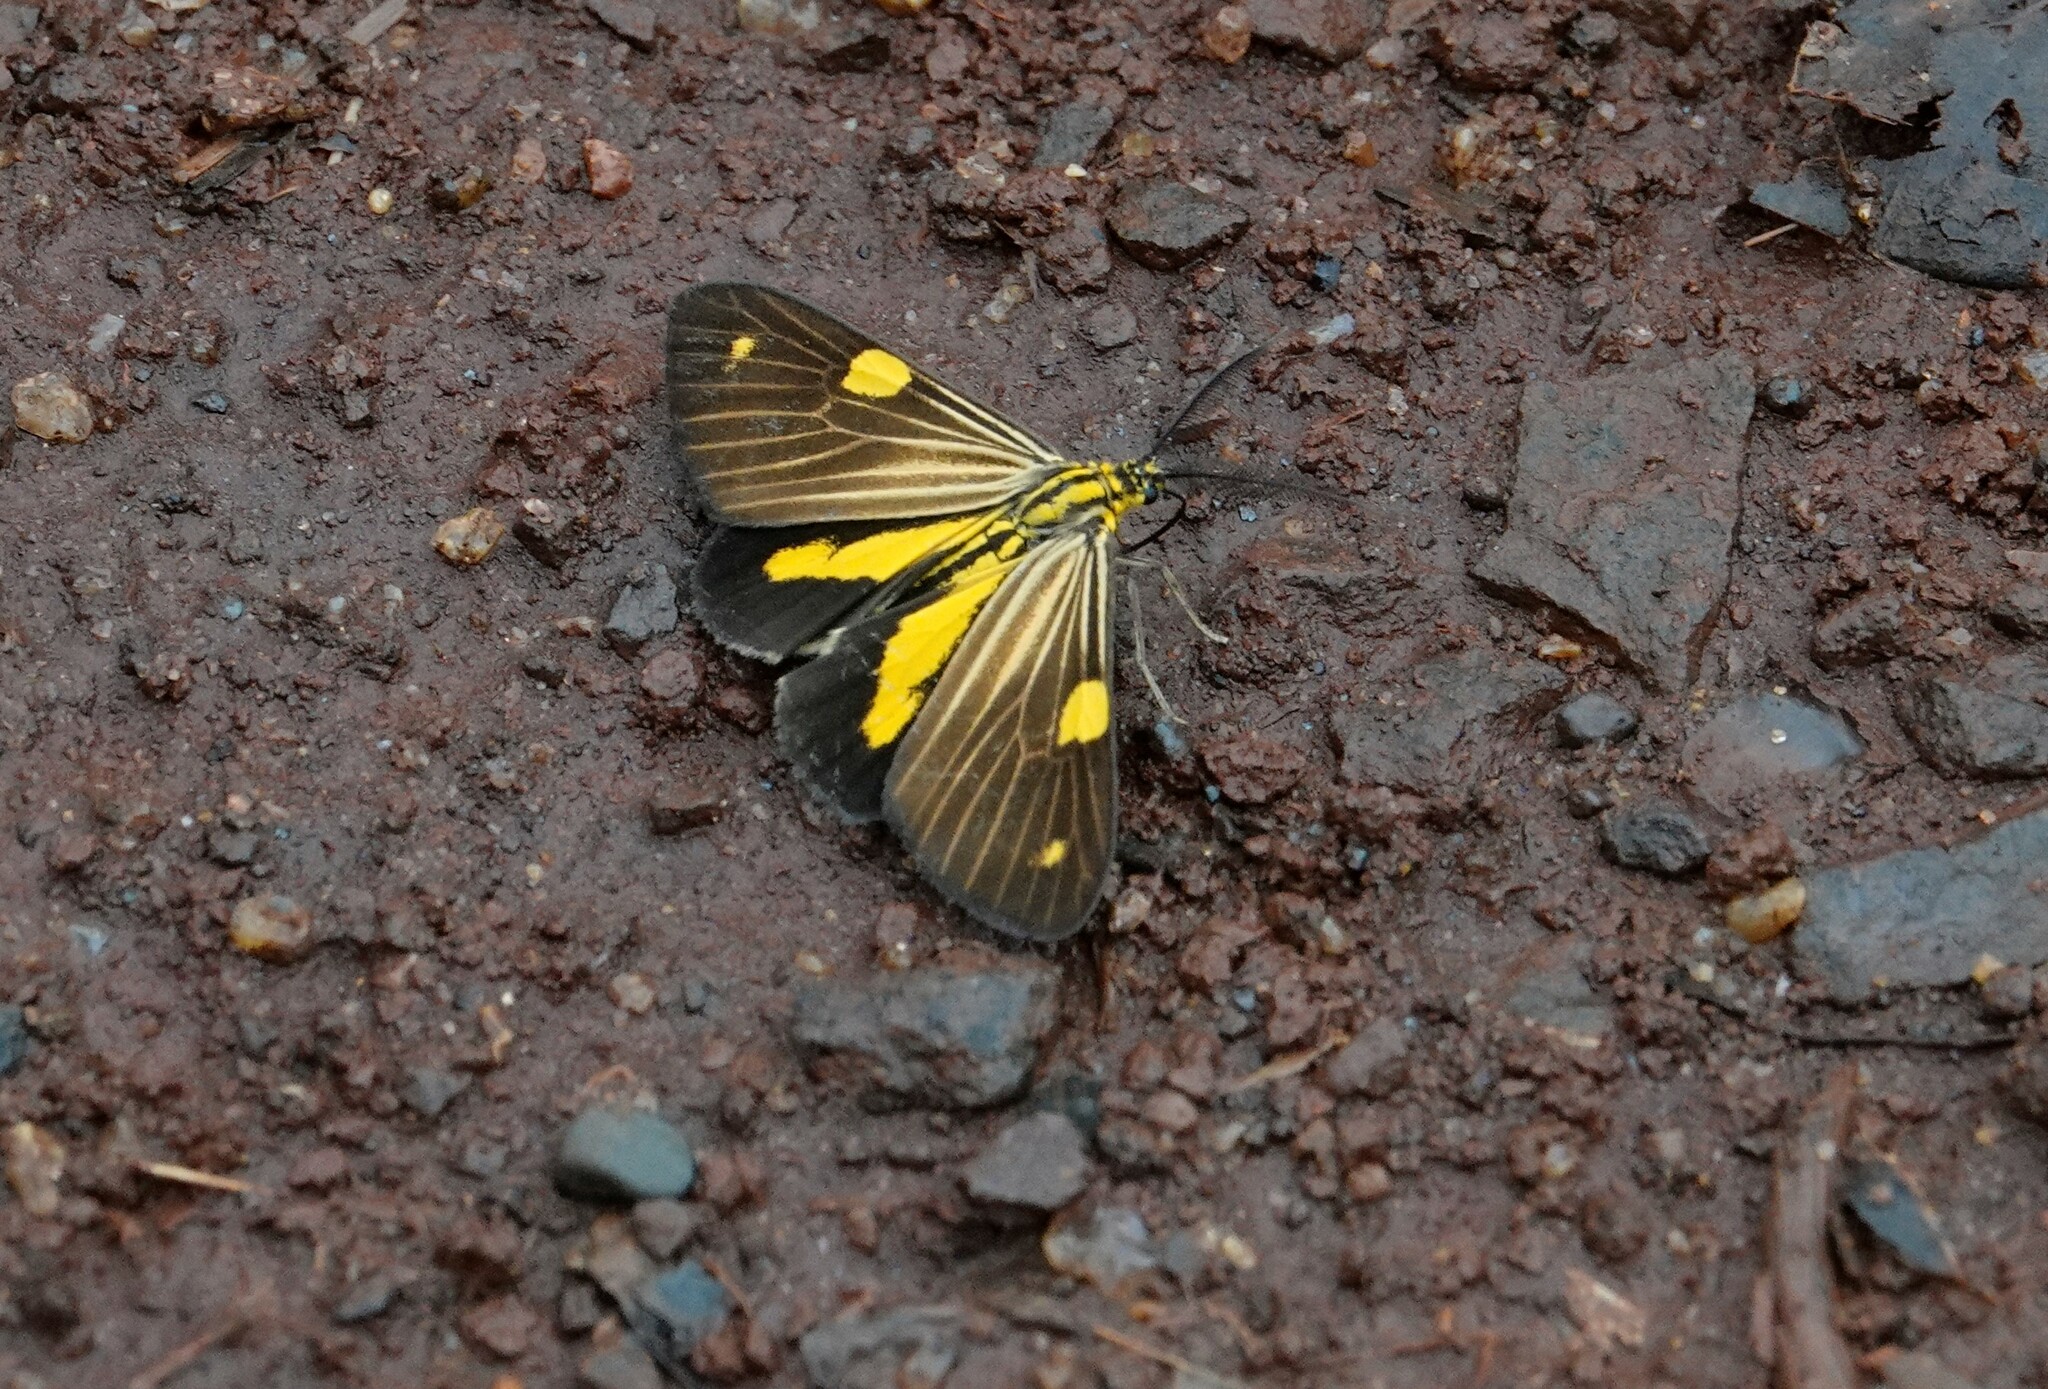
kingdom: Animalia
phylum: Arthropoda
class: Insecta
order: Lepidoptera
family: Notodontidae
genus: Phaeochlaena
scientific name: Phaeochlaena
